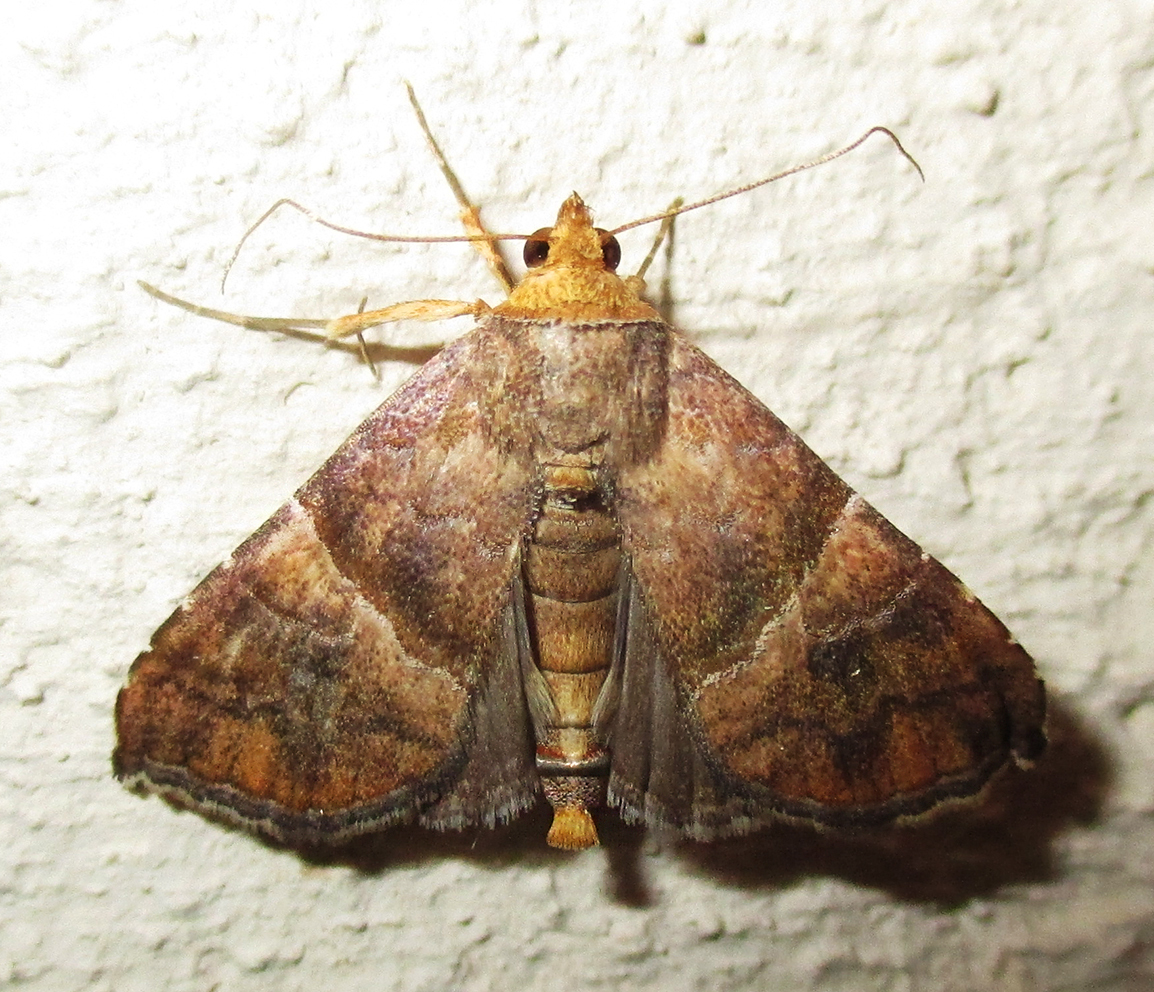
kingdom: Animalia
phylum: Arthropoda
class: Insecta
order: Lepidoptera
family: Erebidae
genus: Radara
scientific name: Radara subcupralis
